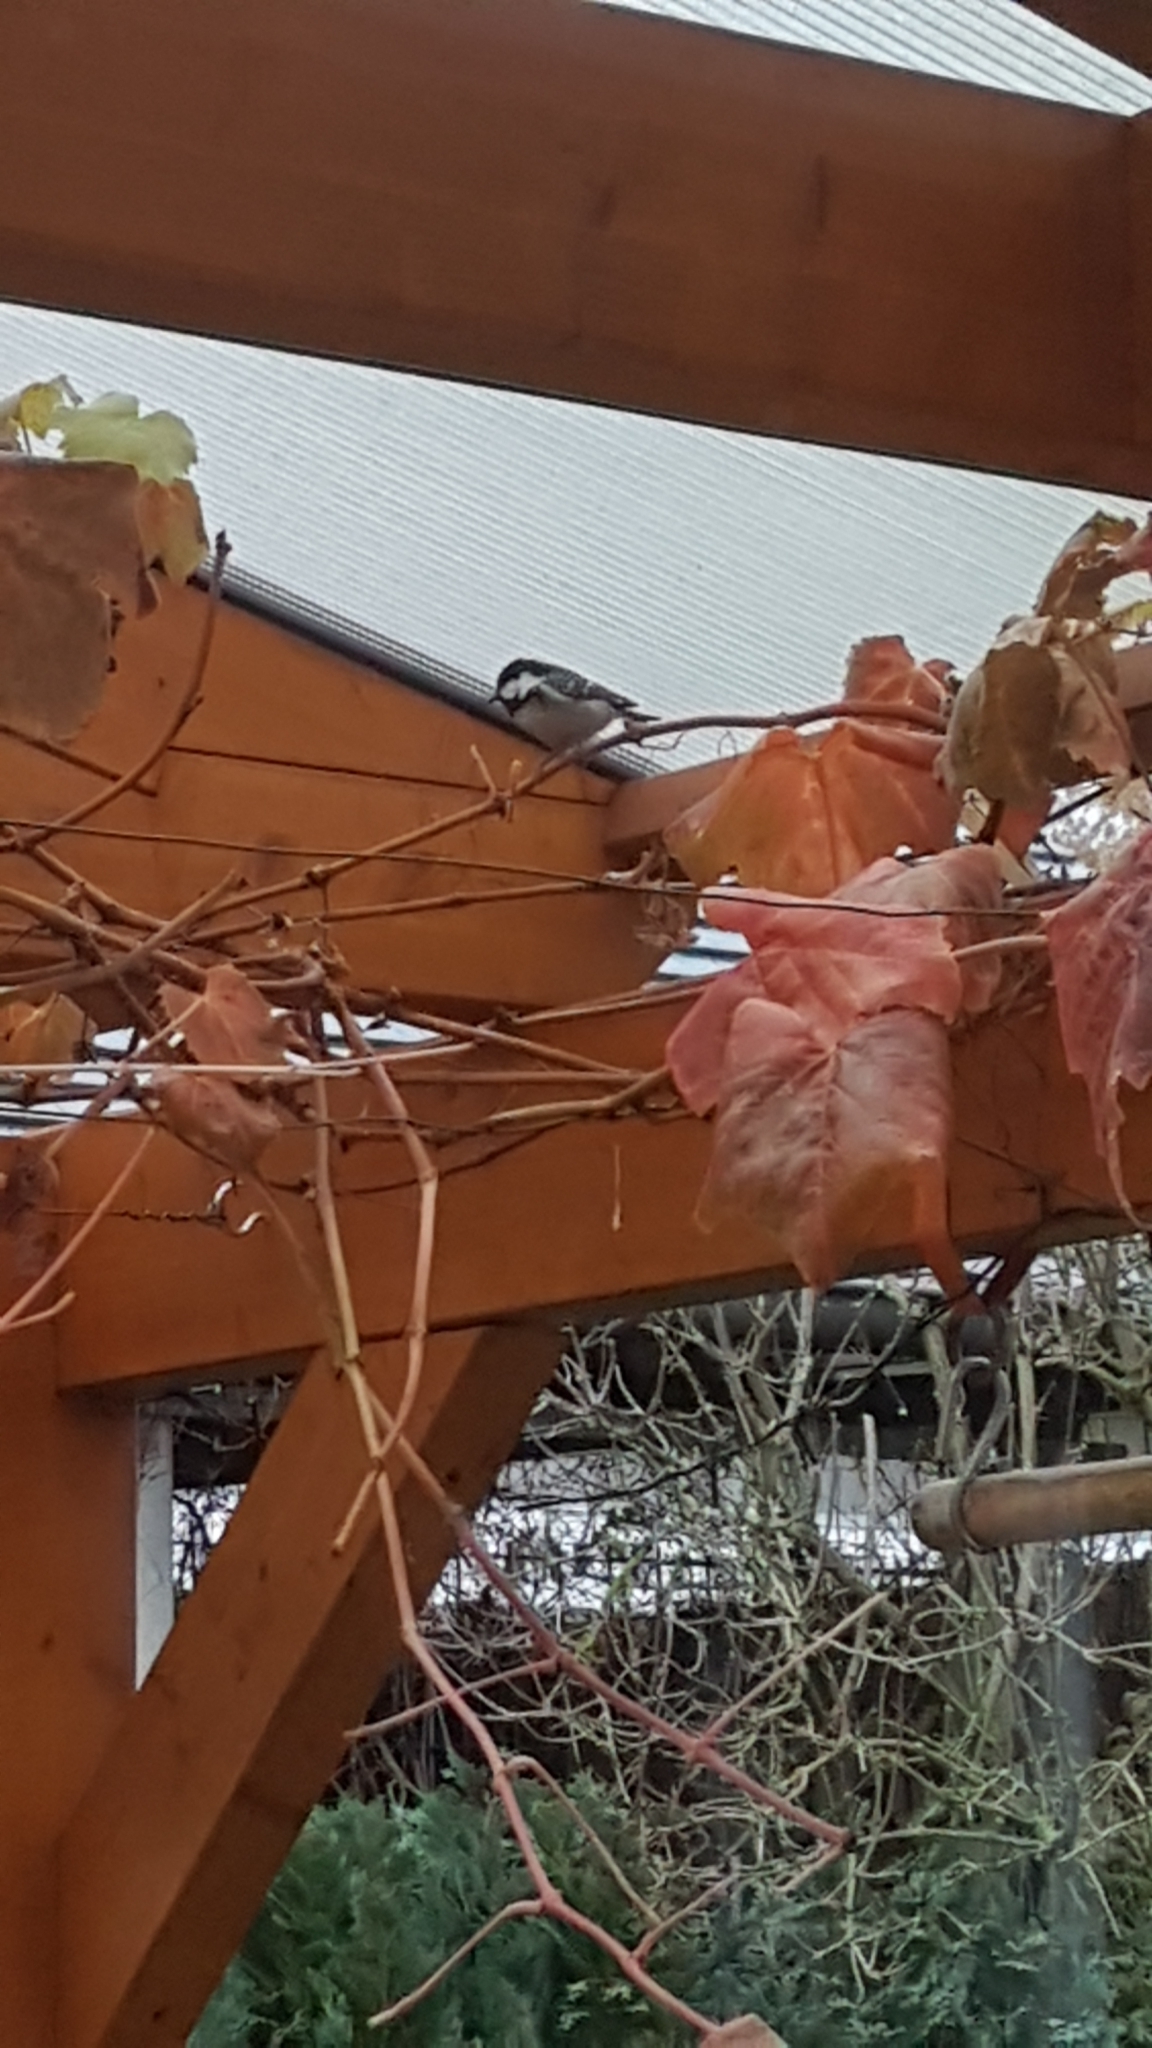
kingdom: Animalia
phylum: Chordata
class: Aves
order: Passeriformes
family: Paridae
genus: Periparus
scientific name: Periparus ater
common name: Coal tit
